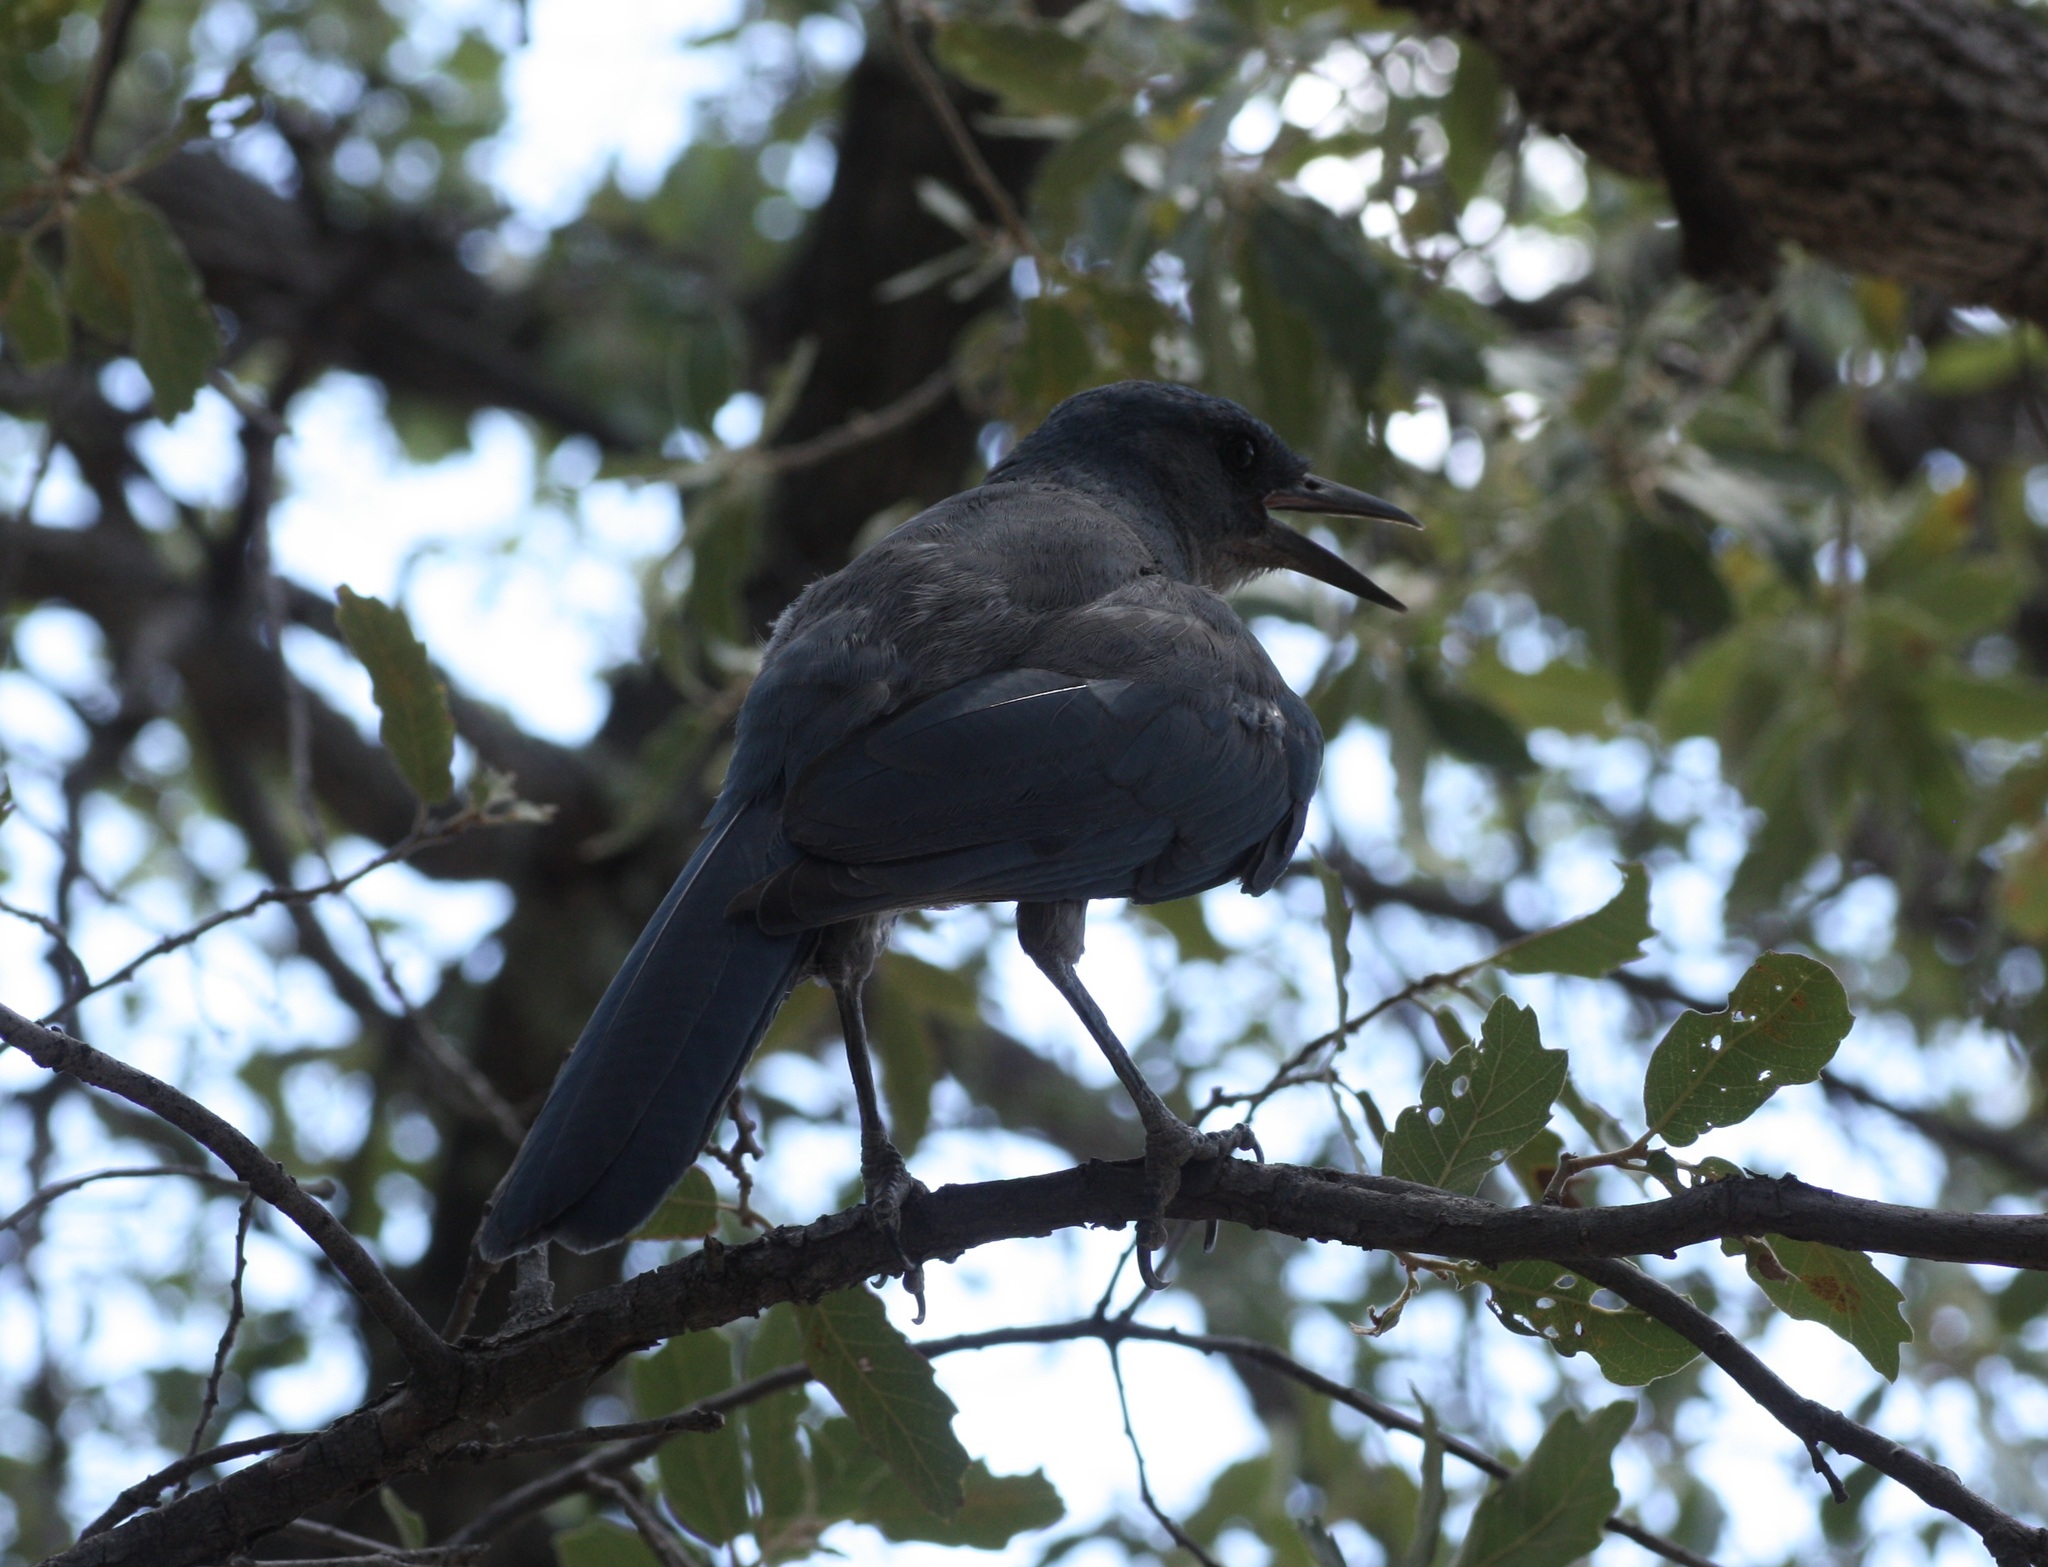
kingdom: Animalia
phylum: Chordata
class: Aves
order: Passeriformes
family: Corvidae
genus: Aphelocoma
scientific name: Aphelocoma wollweberi
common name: Mexican jay
